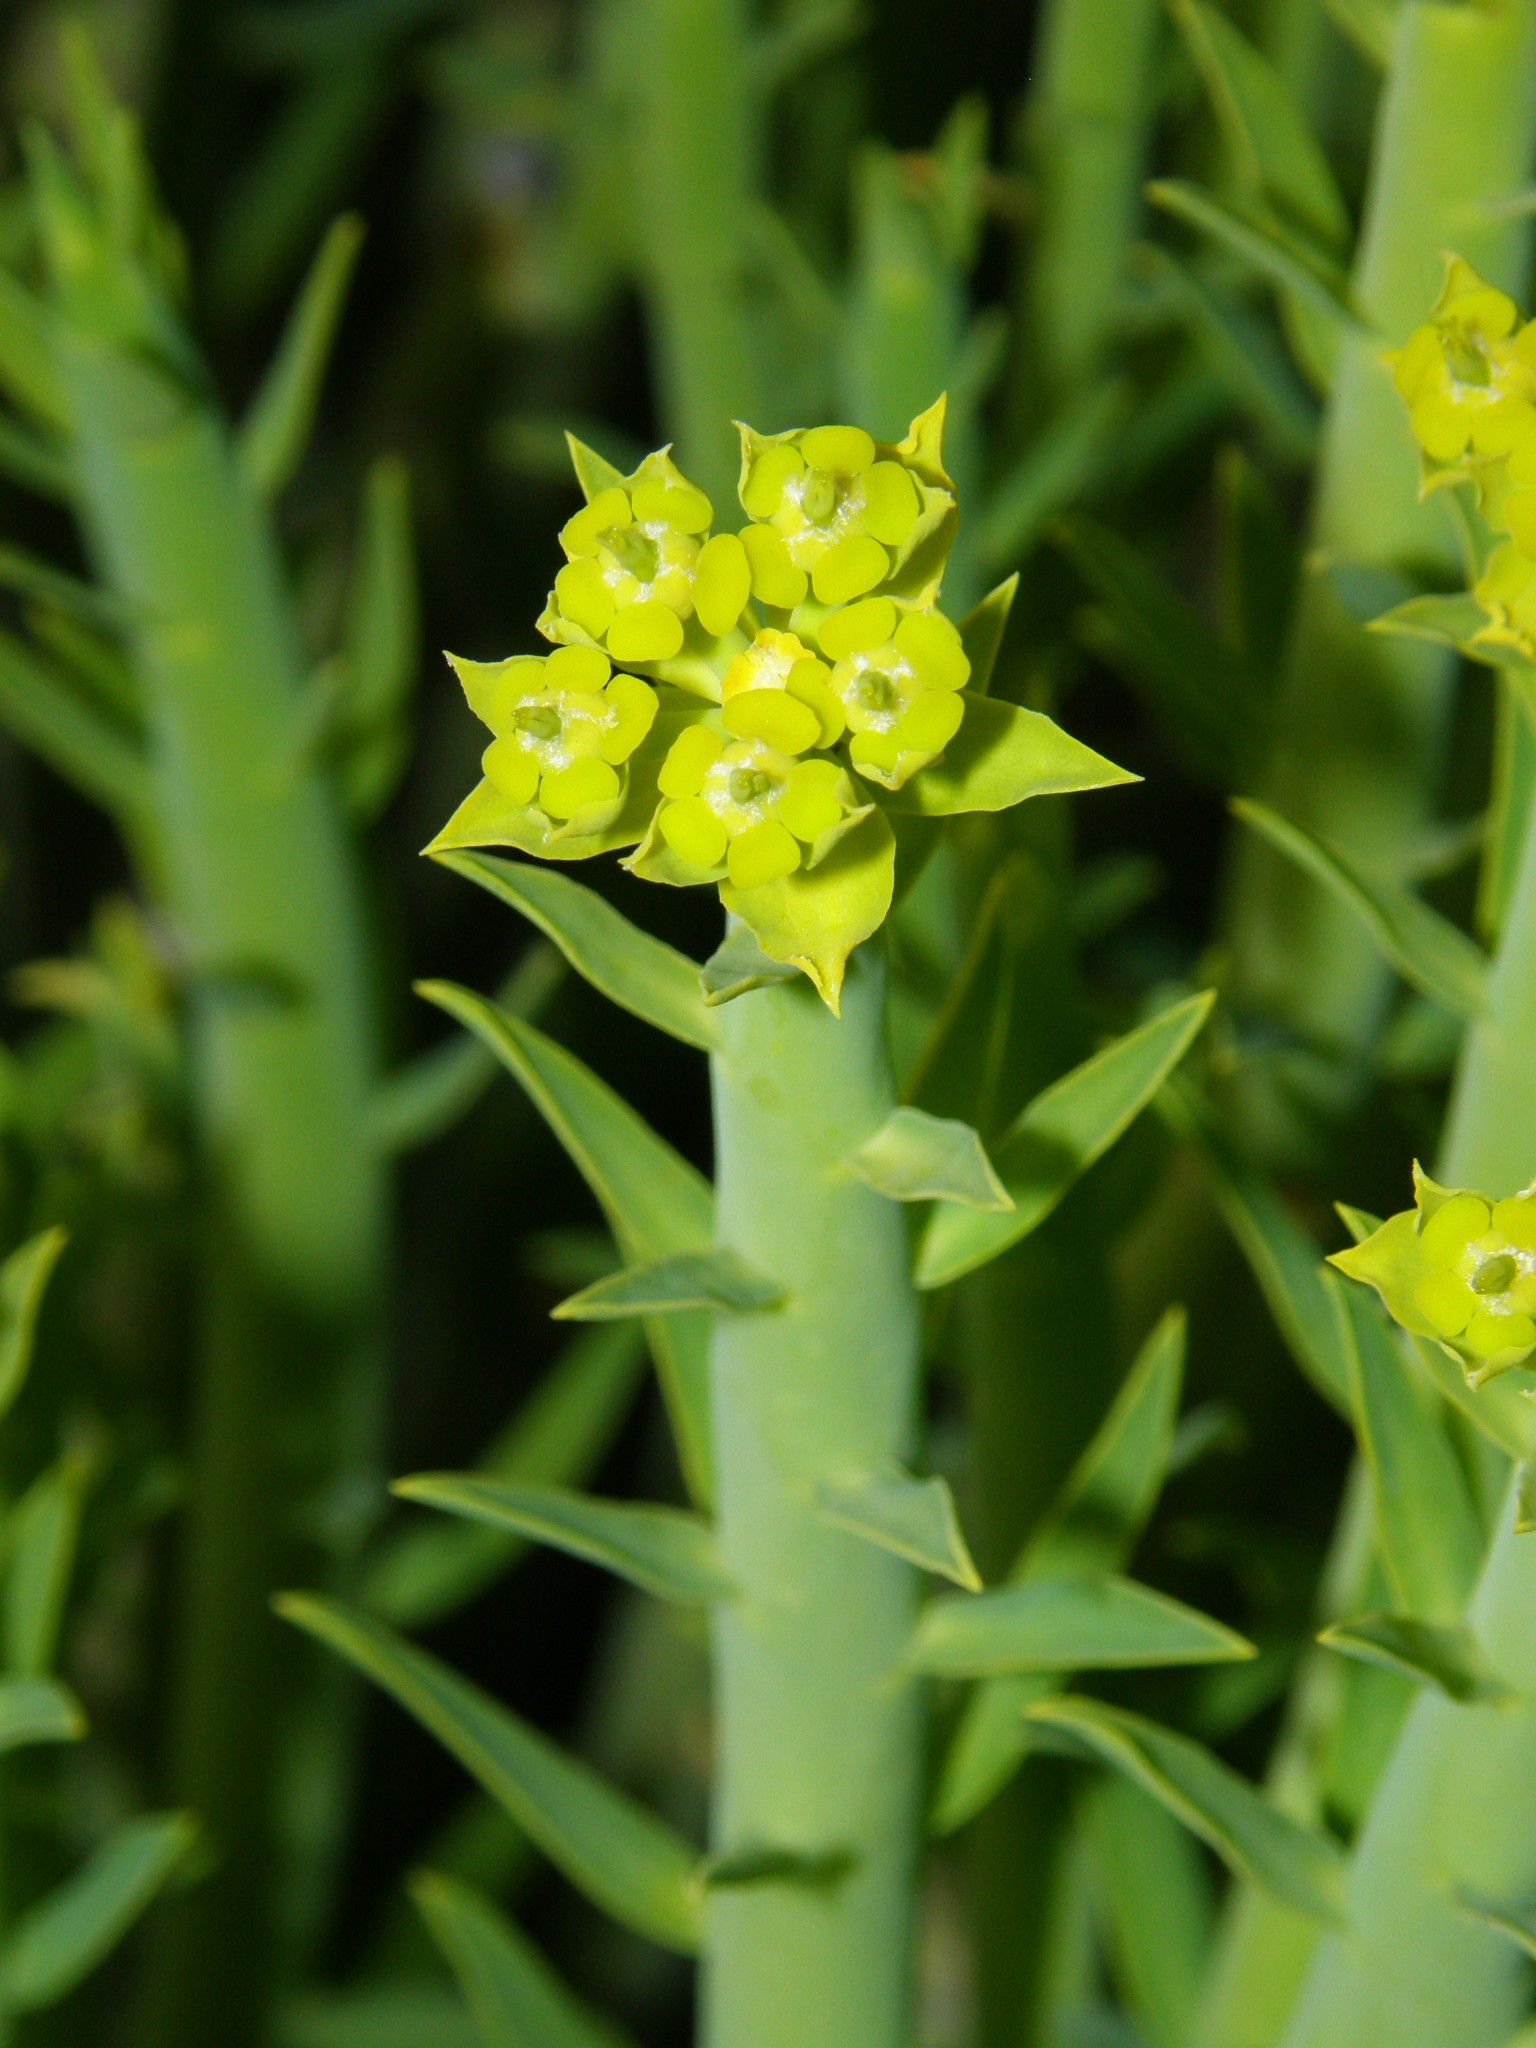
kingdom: Plantae
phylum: Tracheophyta
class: Magnoliopsida
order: Malpighiales
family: Euphorbiaceae
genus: Euphorbia
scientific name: Euphorbia mauritanica
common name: Jackal's-food
